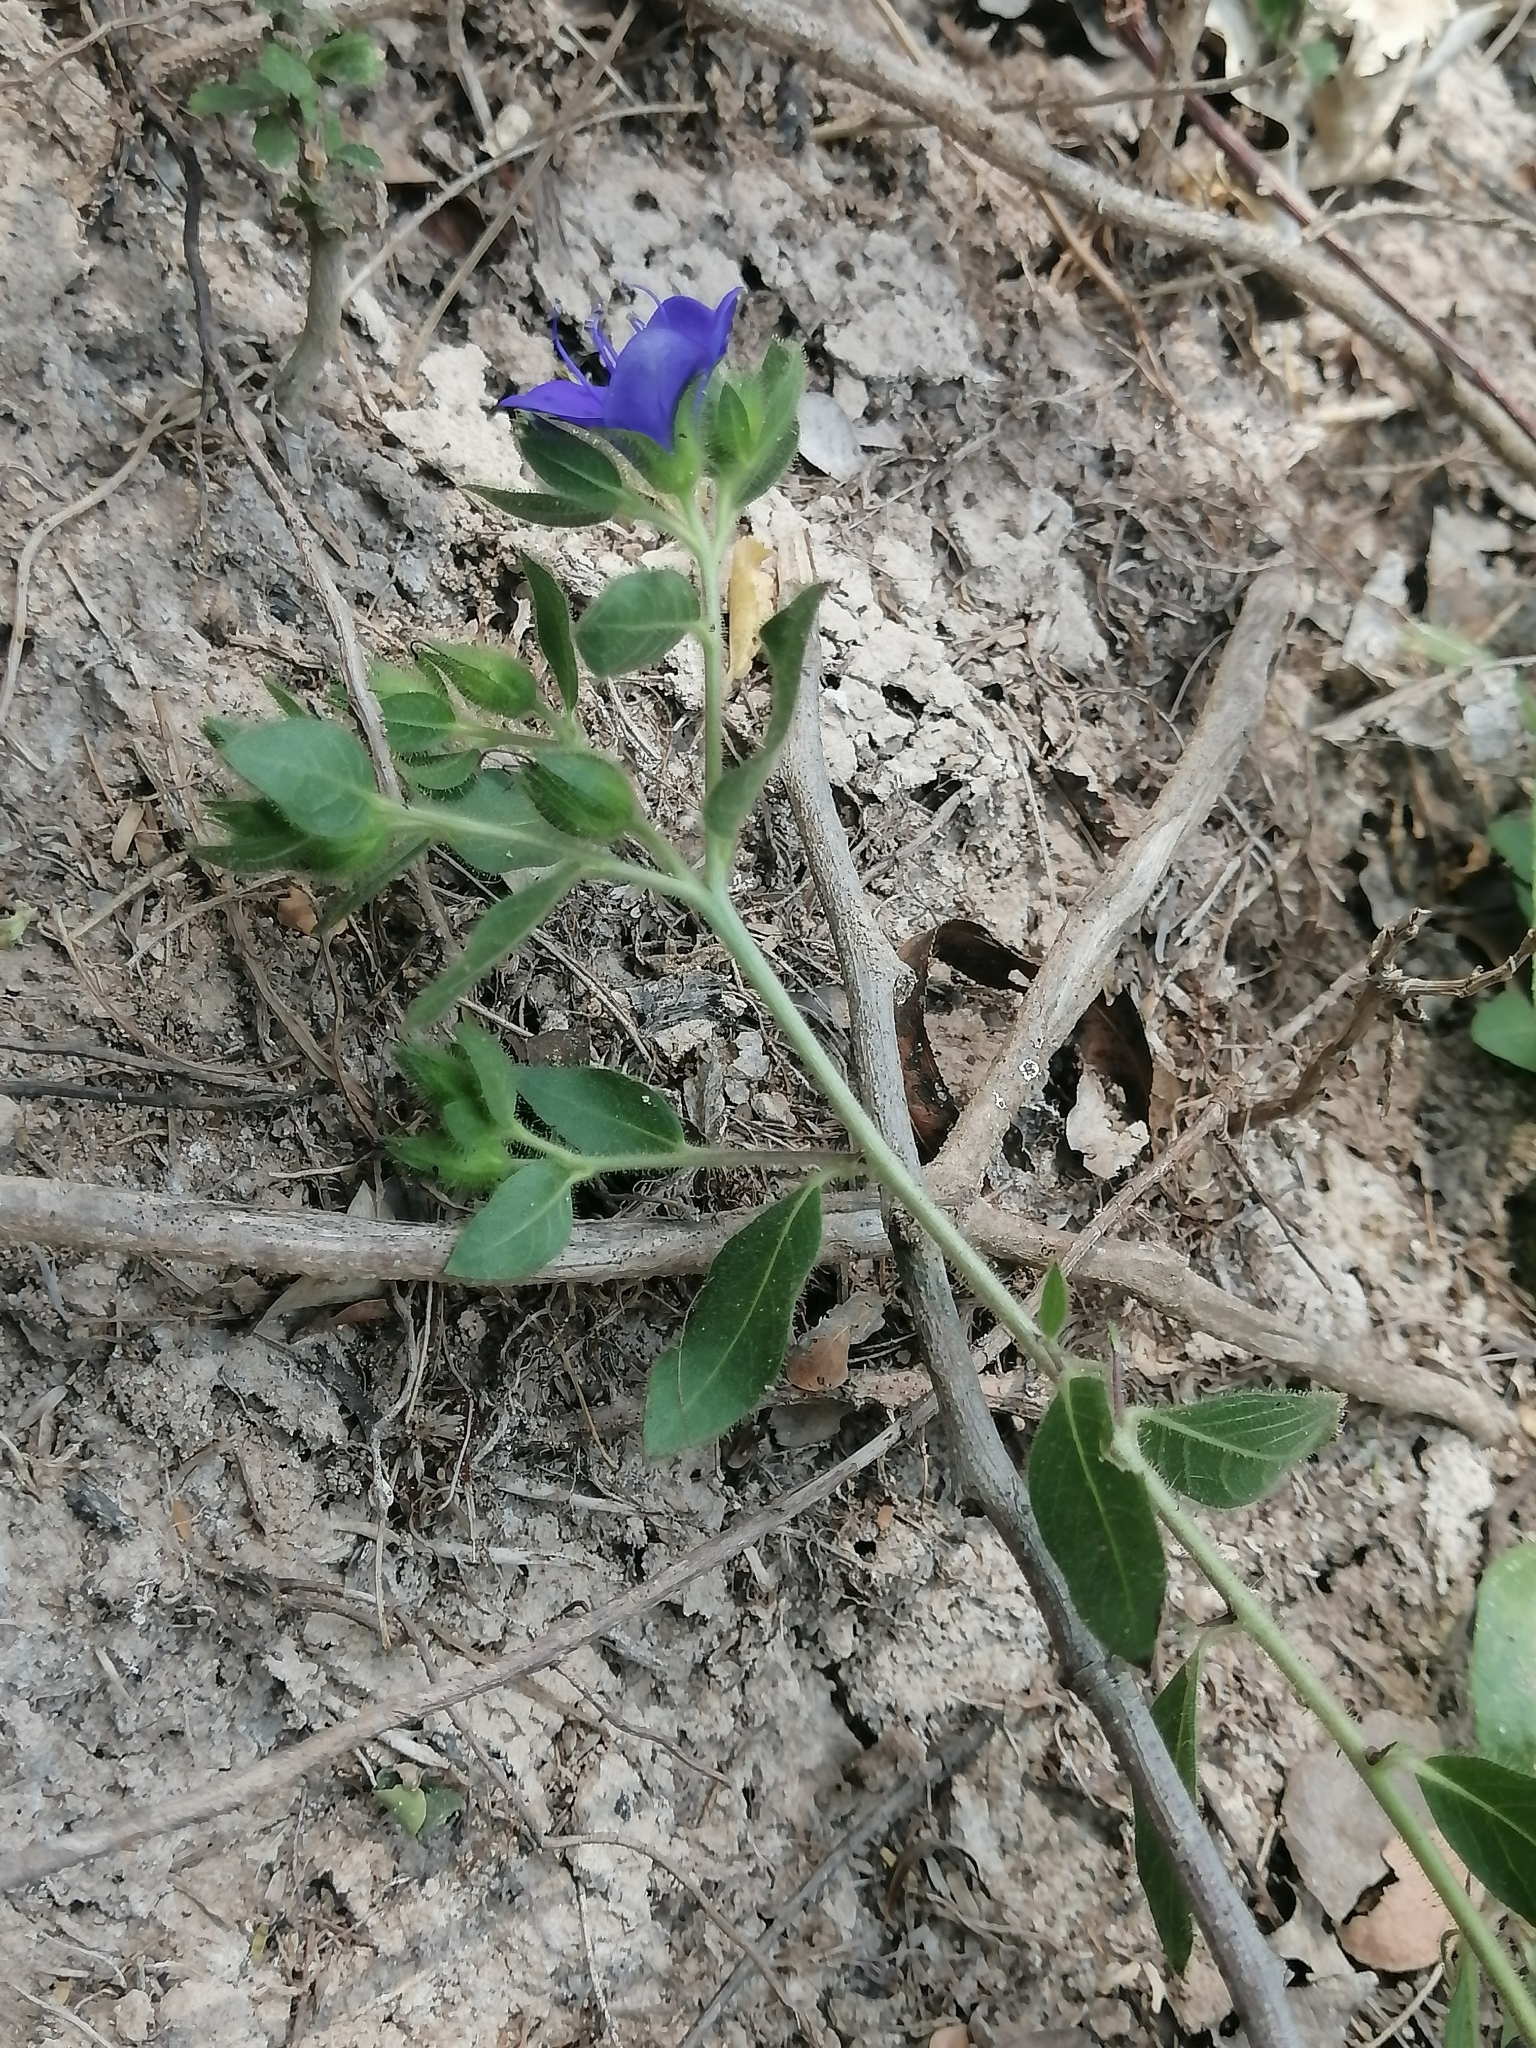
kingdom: Plantae
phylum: Tracheophyta
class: Magnoliopsida
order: Solanales
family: Hydroleaceae
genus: Hydrolea
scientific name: Hydrolea spinosa
